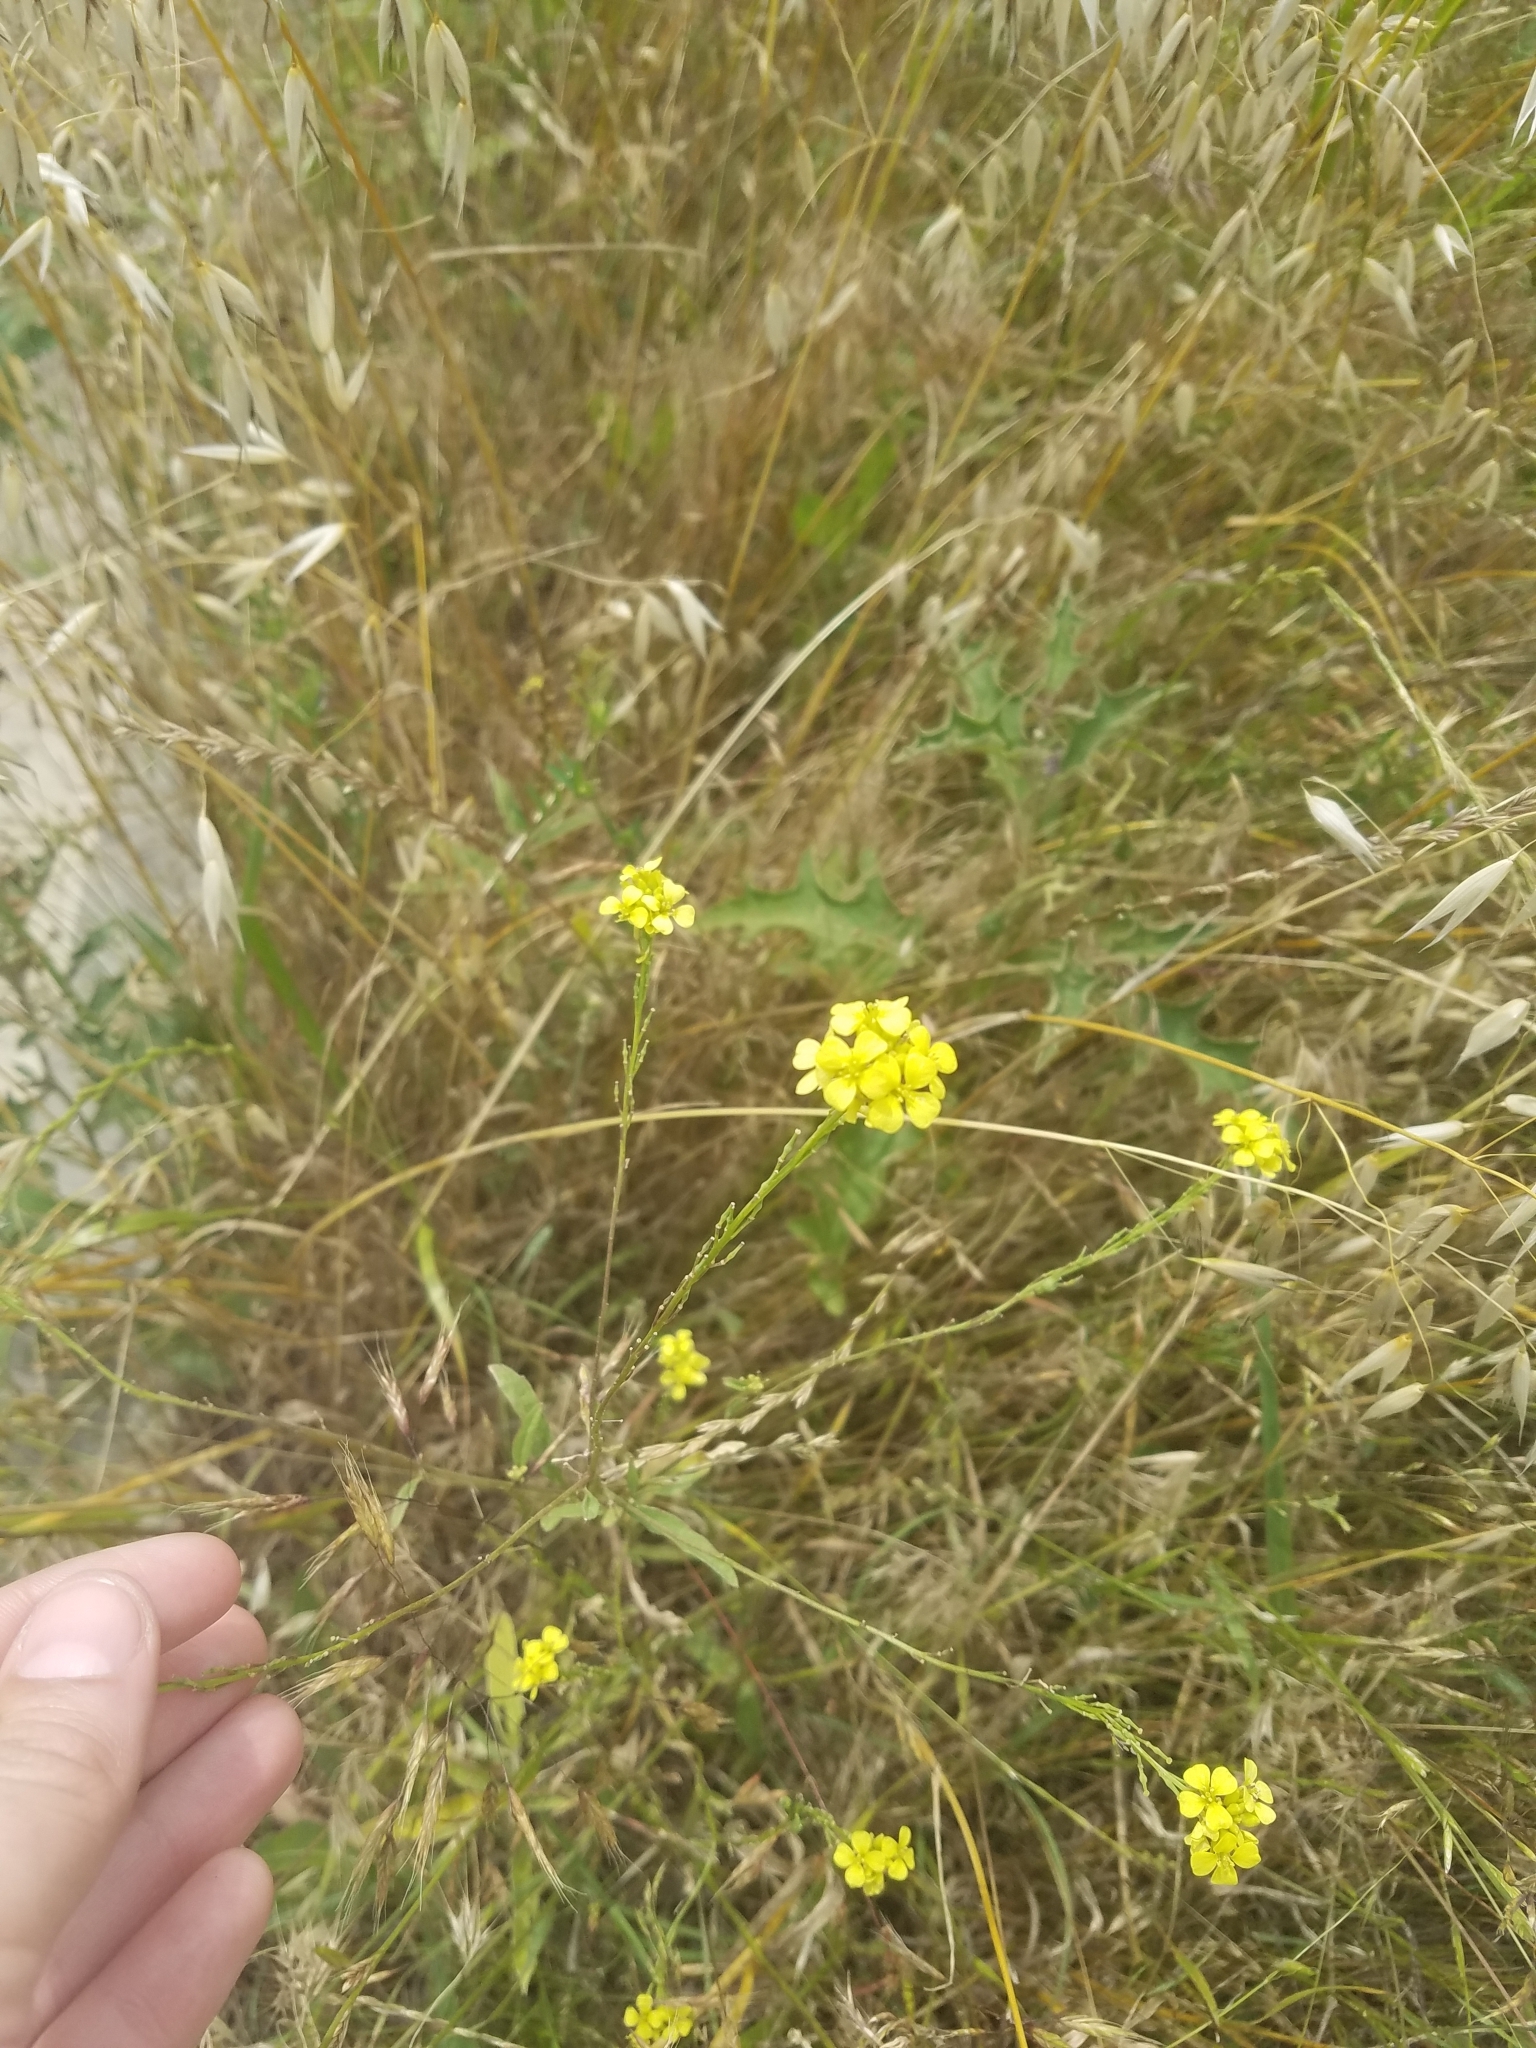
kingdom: Plantae
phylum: Tracheophyta
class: Magnoliopsida
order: Brassicales
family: Brassicaceae
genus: Rapistrum
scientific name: Rapistrum rugosum
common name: Annual bastardcabbage
